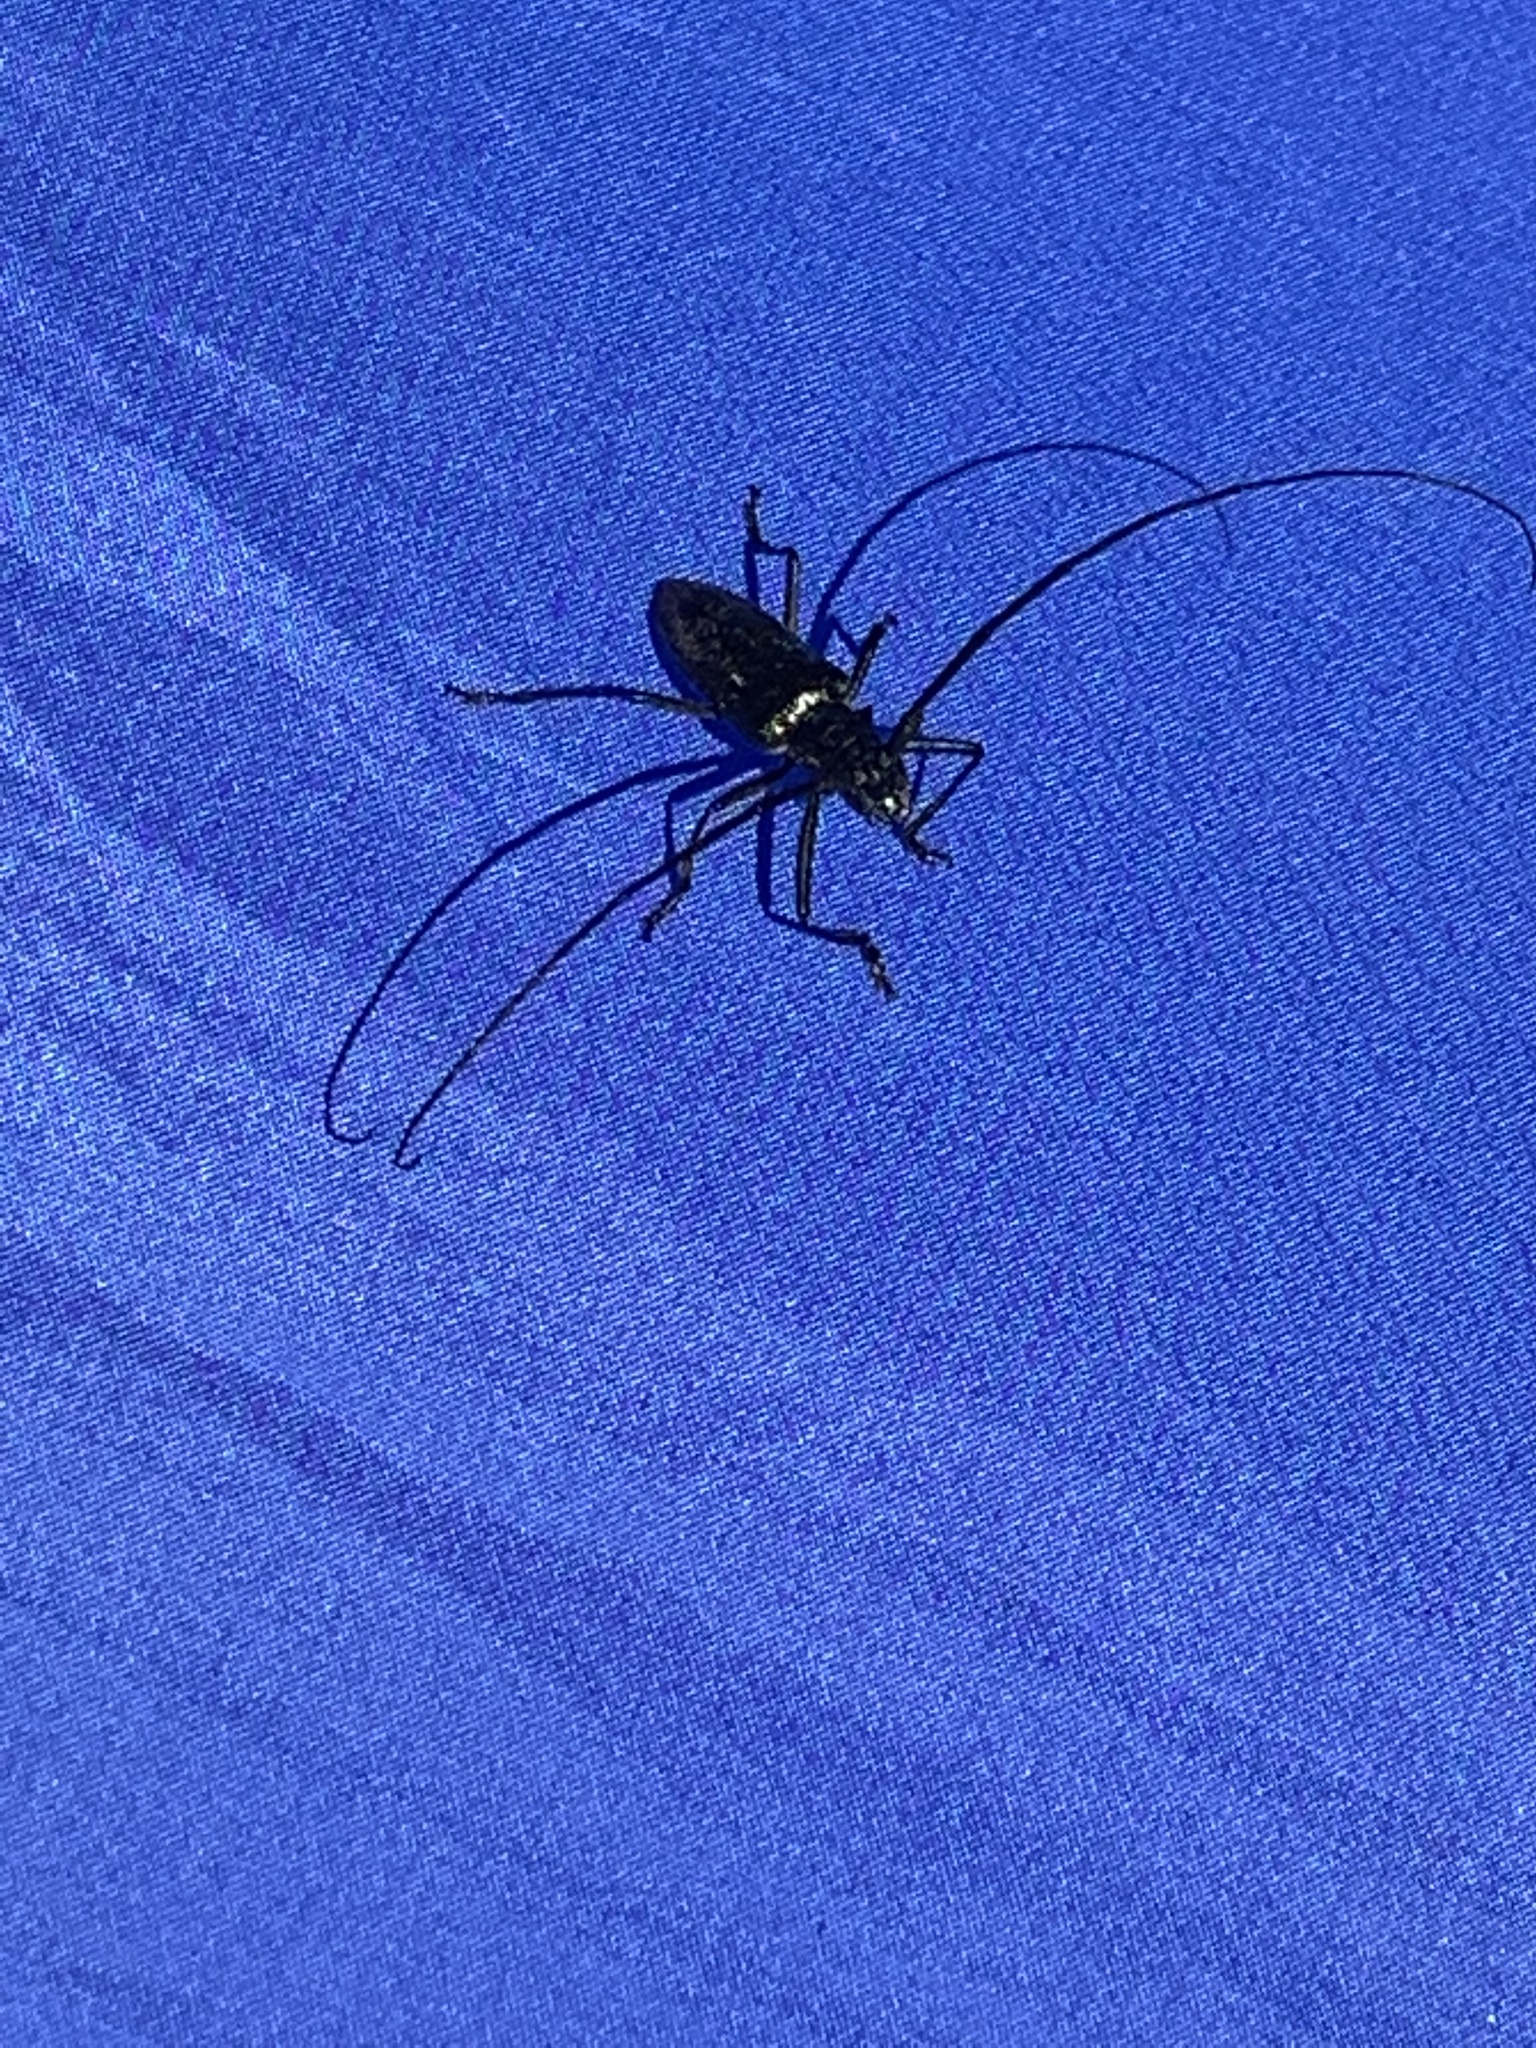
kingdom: Animalia
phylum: Arthropoda
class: Insecta
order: Coleoptera
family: Cerambycidae
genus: Monochamus
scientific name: Monochamus scutellatus
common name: White-spotted sawyer beetle
